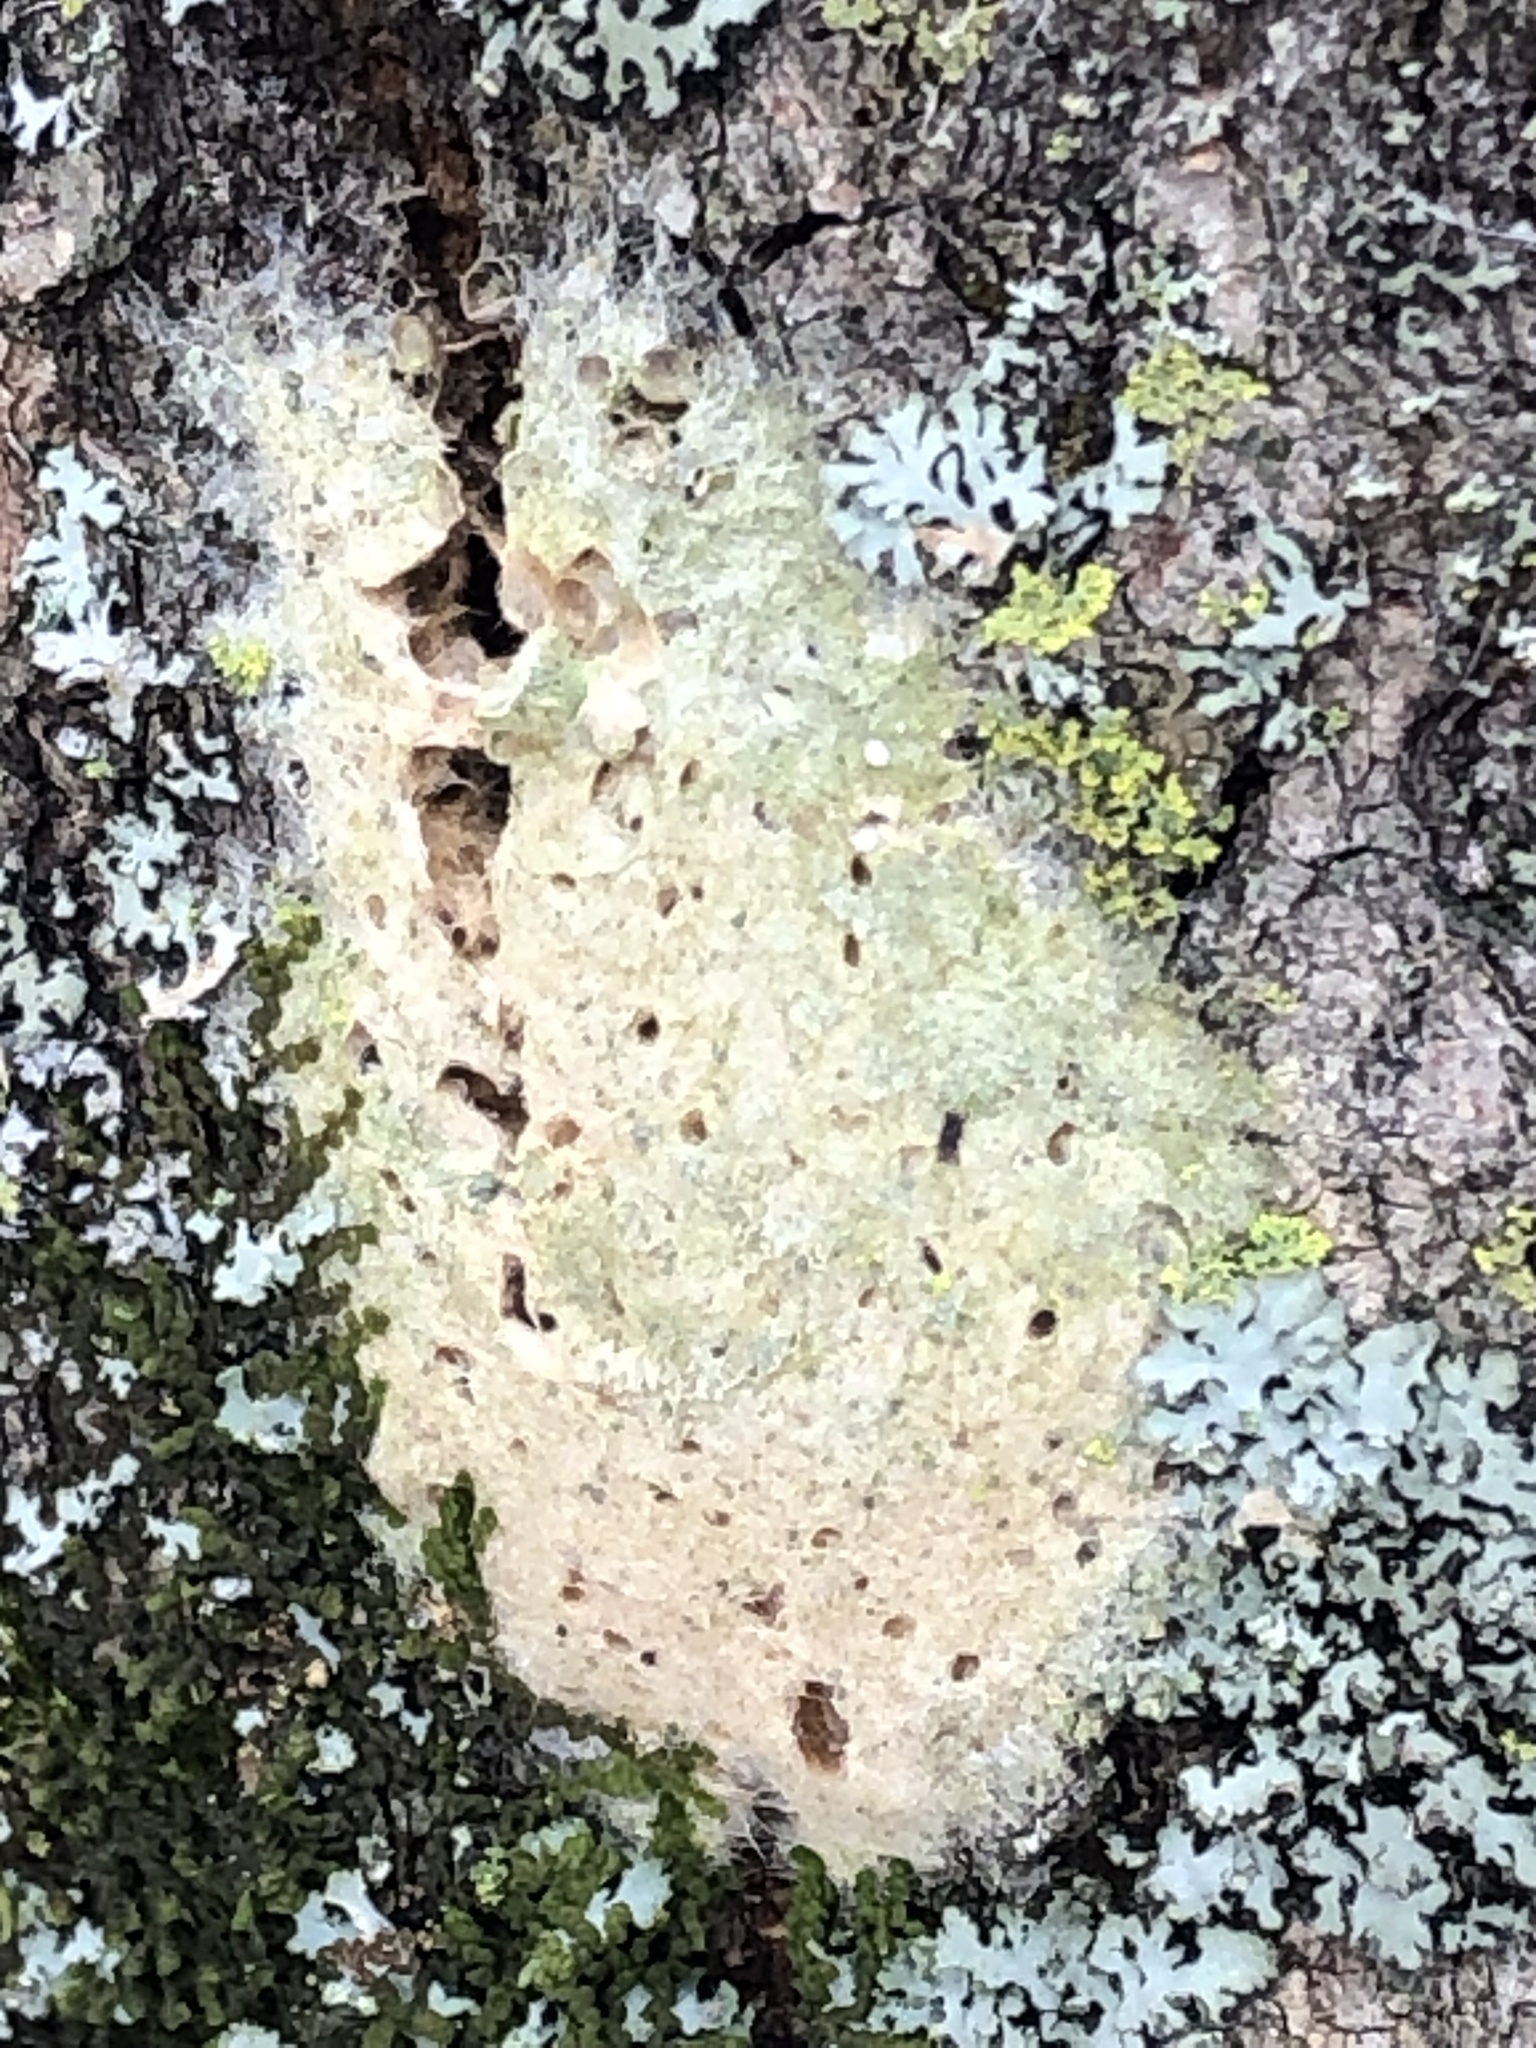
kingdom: Animalia
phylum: Arthropoda
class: Insecta
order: Lepidoptera
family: Erebidae
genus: Lymantria
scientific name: Lymantria dispar
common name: Gypsy moth
